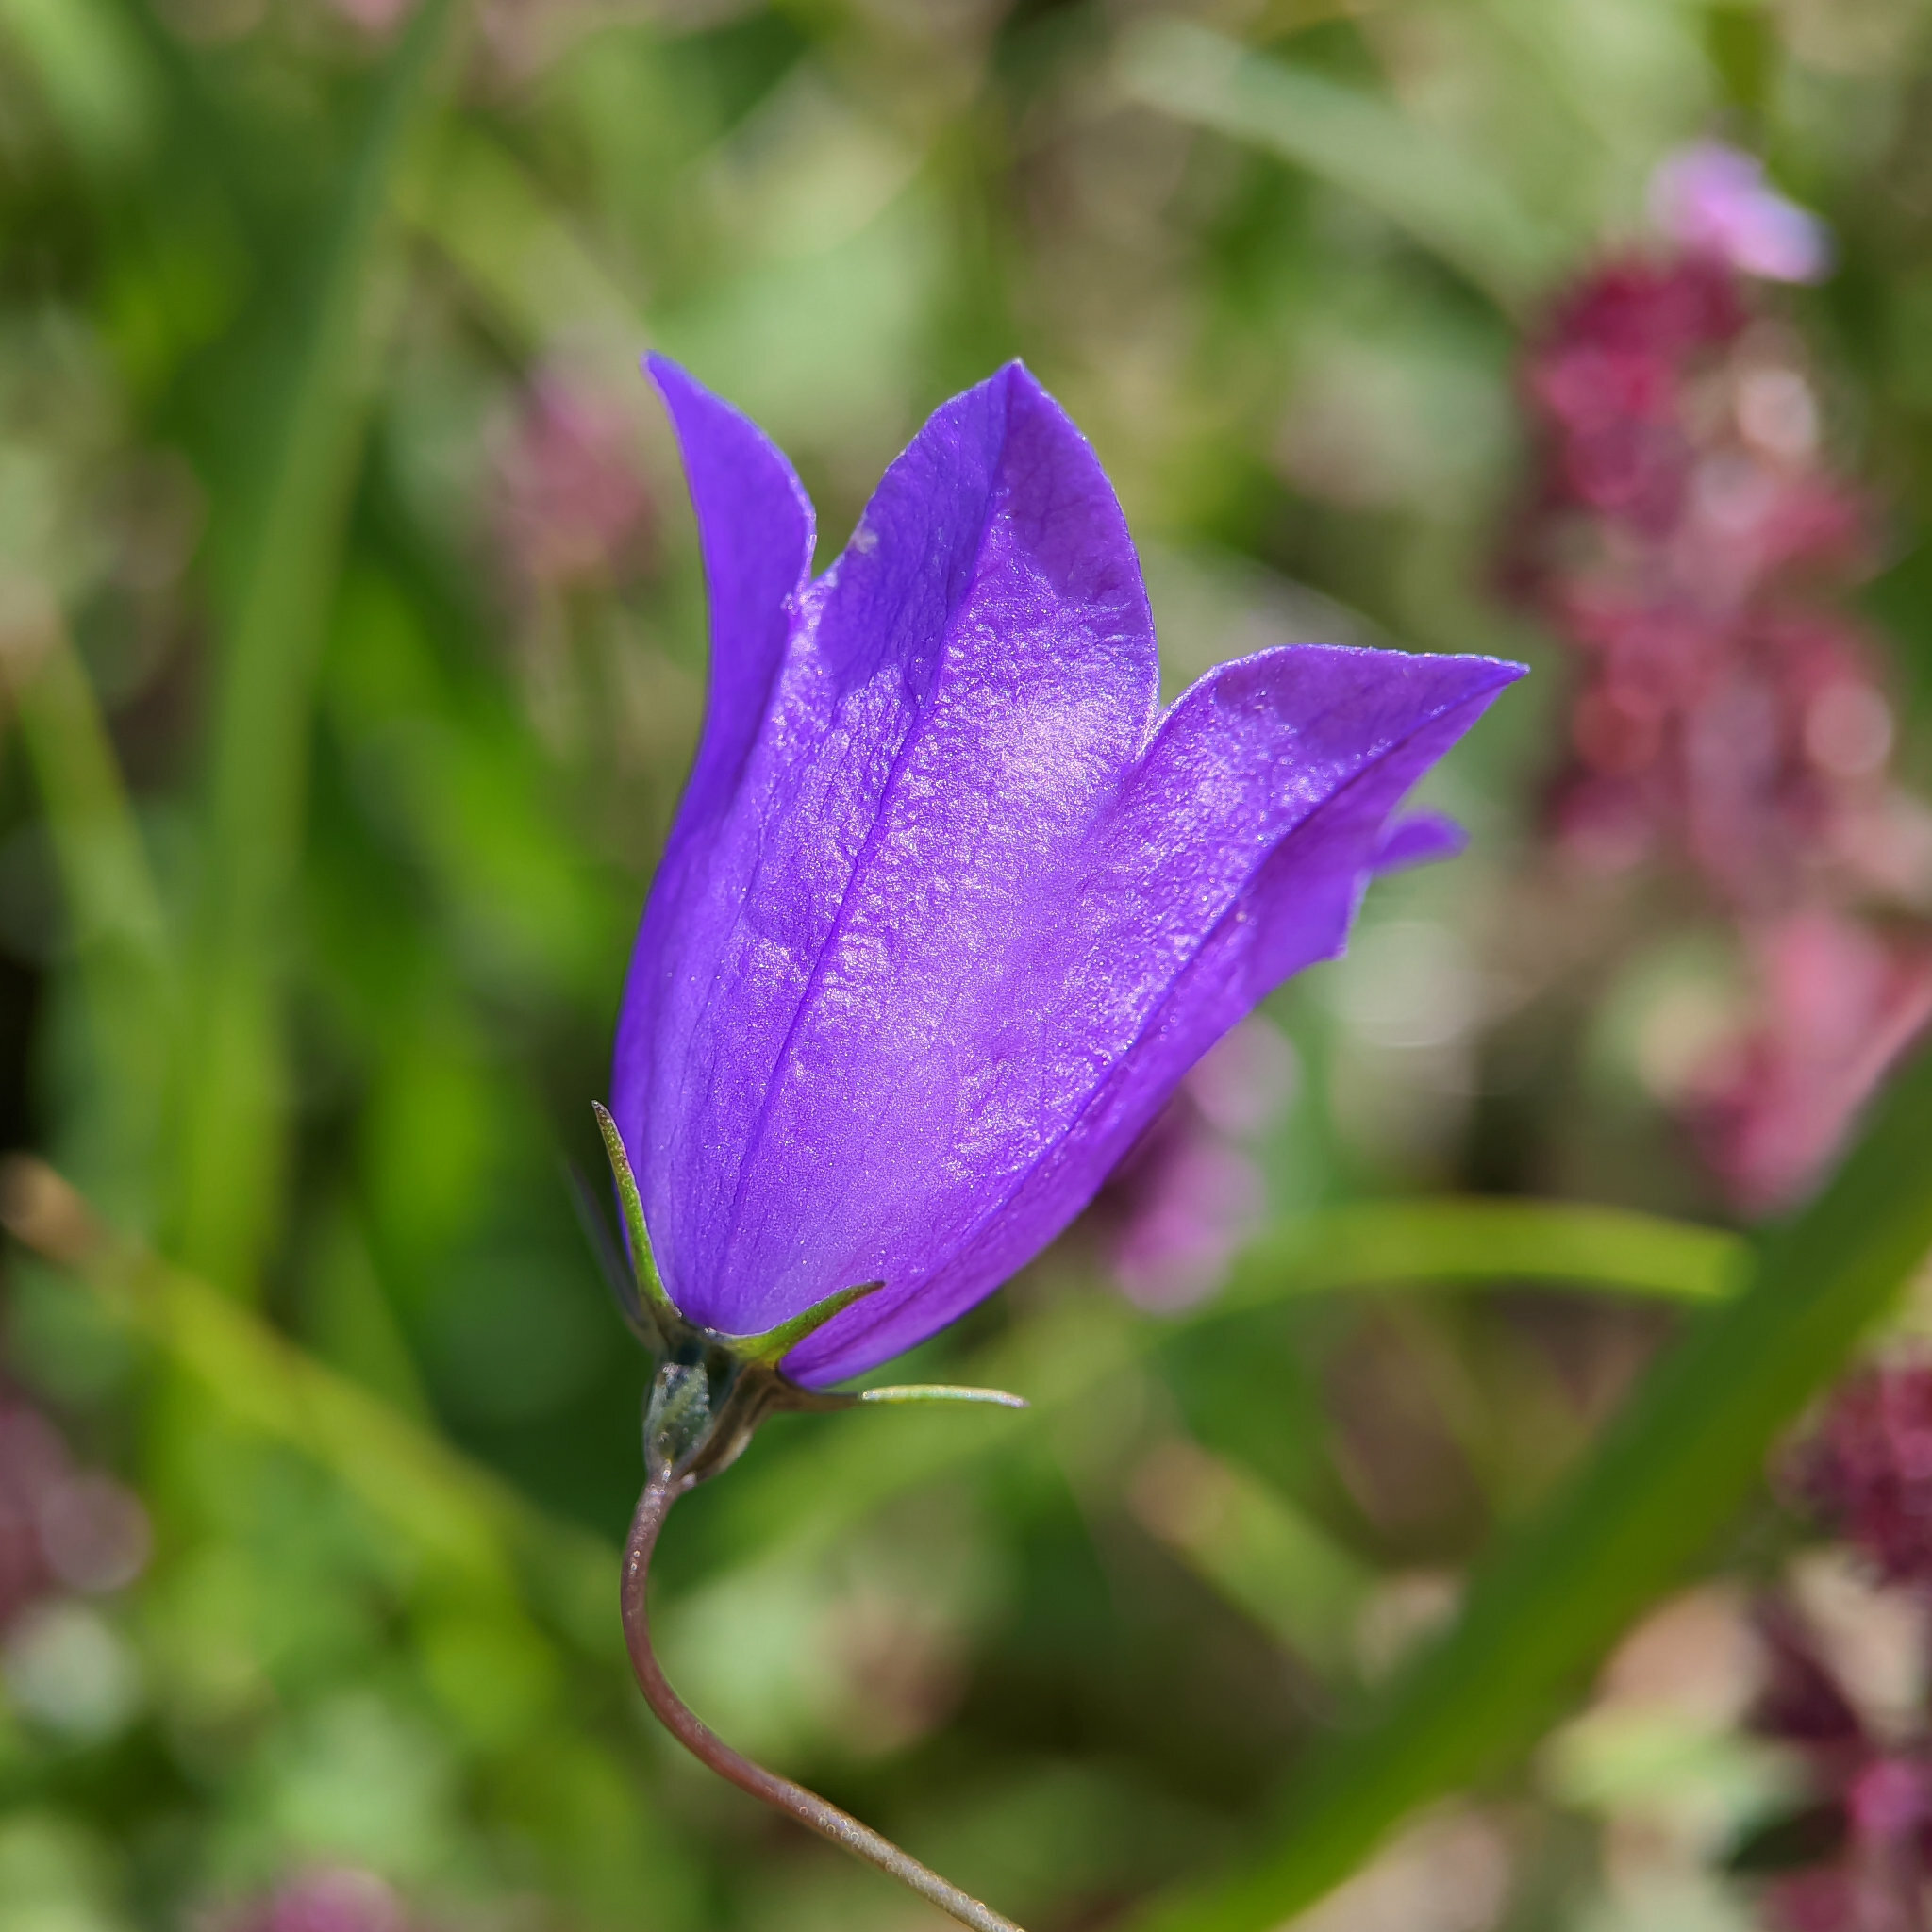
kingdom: Plantae
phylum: Tracheophyta
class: Magnoliopsida
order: Asterales
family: Campanulaceae
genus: Campanula
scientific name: Campanula rotundifolia
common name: Harebell
